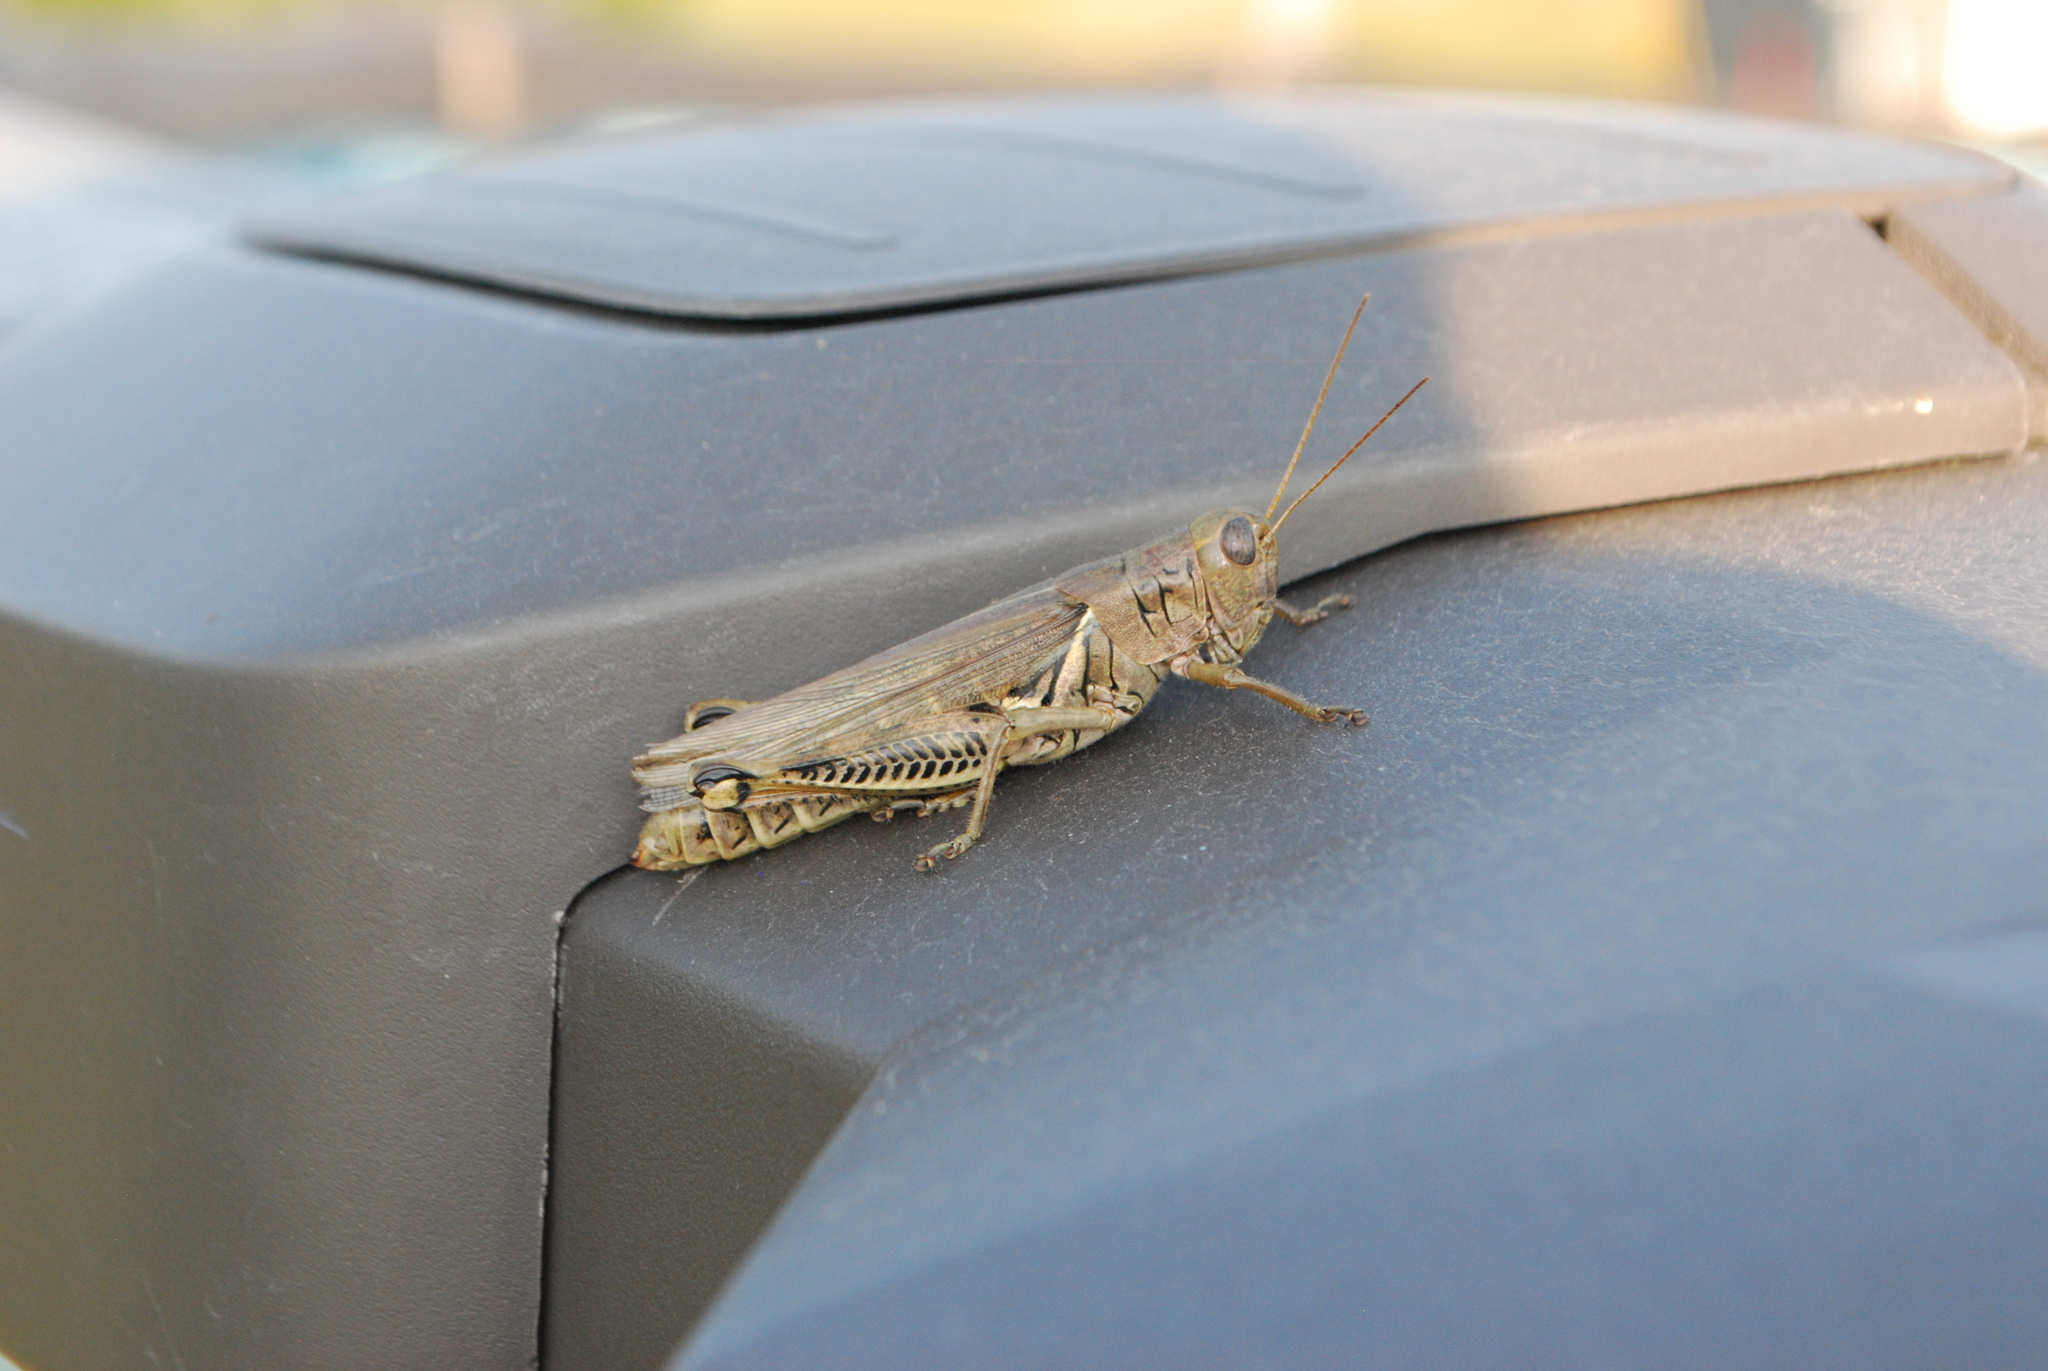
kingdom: Animalia
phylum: Arthropoda
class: Insecta
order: Orthoptera
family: Acrididae
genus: Melanoplus
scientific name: Melanoplus differentialis
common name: Differential grasshopper
